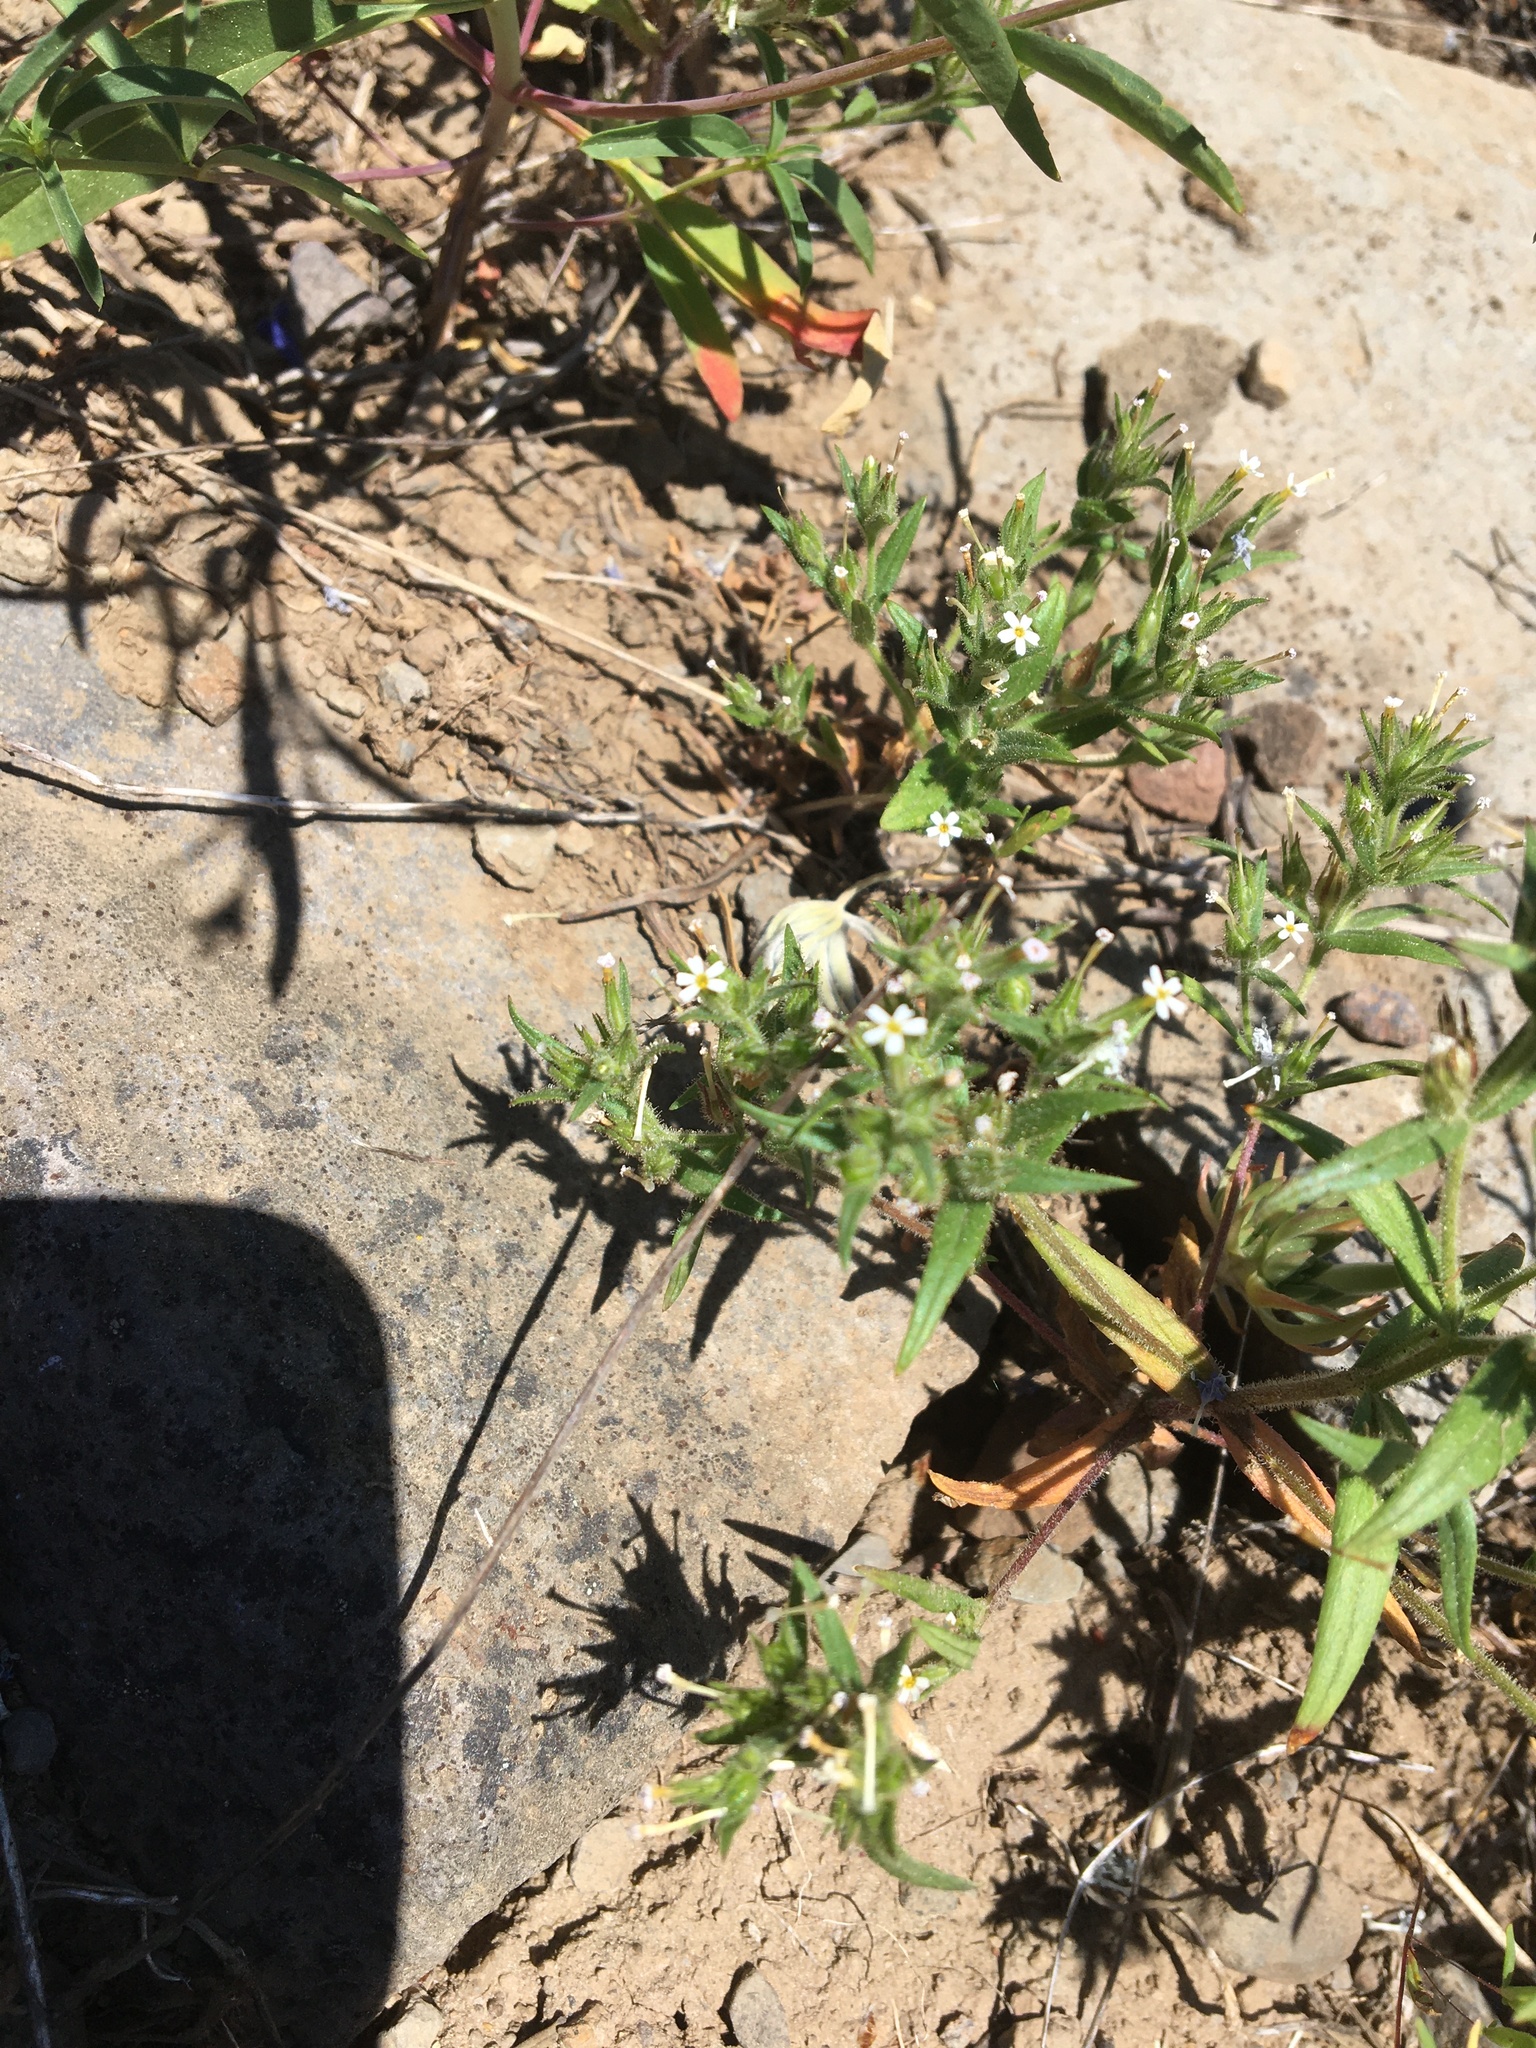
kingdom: Plantae
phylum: Tracheophyta
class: Magnoliopsida
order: Ericales
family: Polemoniaceae
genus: Phlox
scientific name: Phlox gracilis
